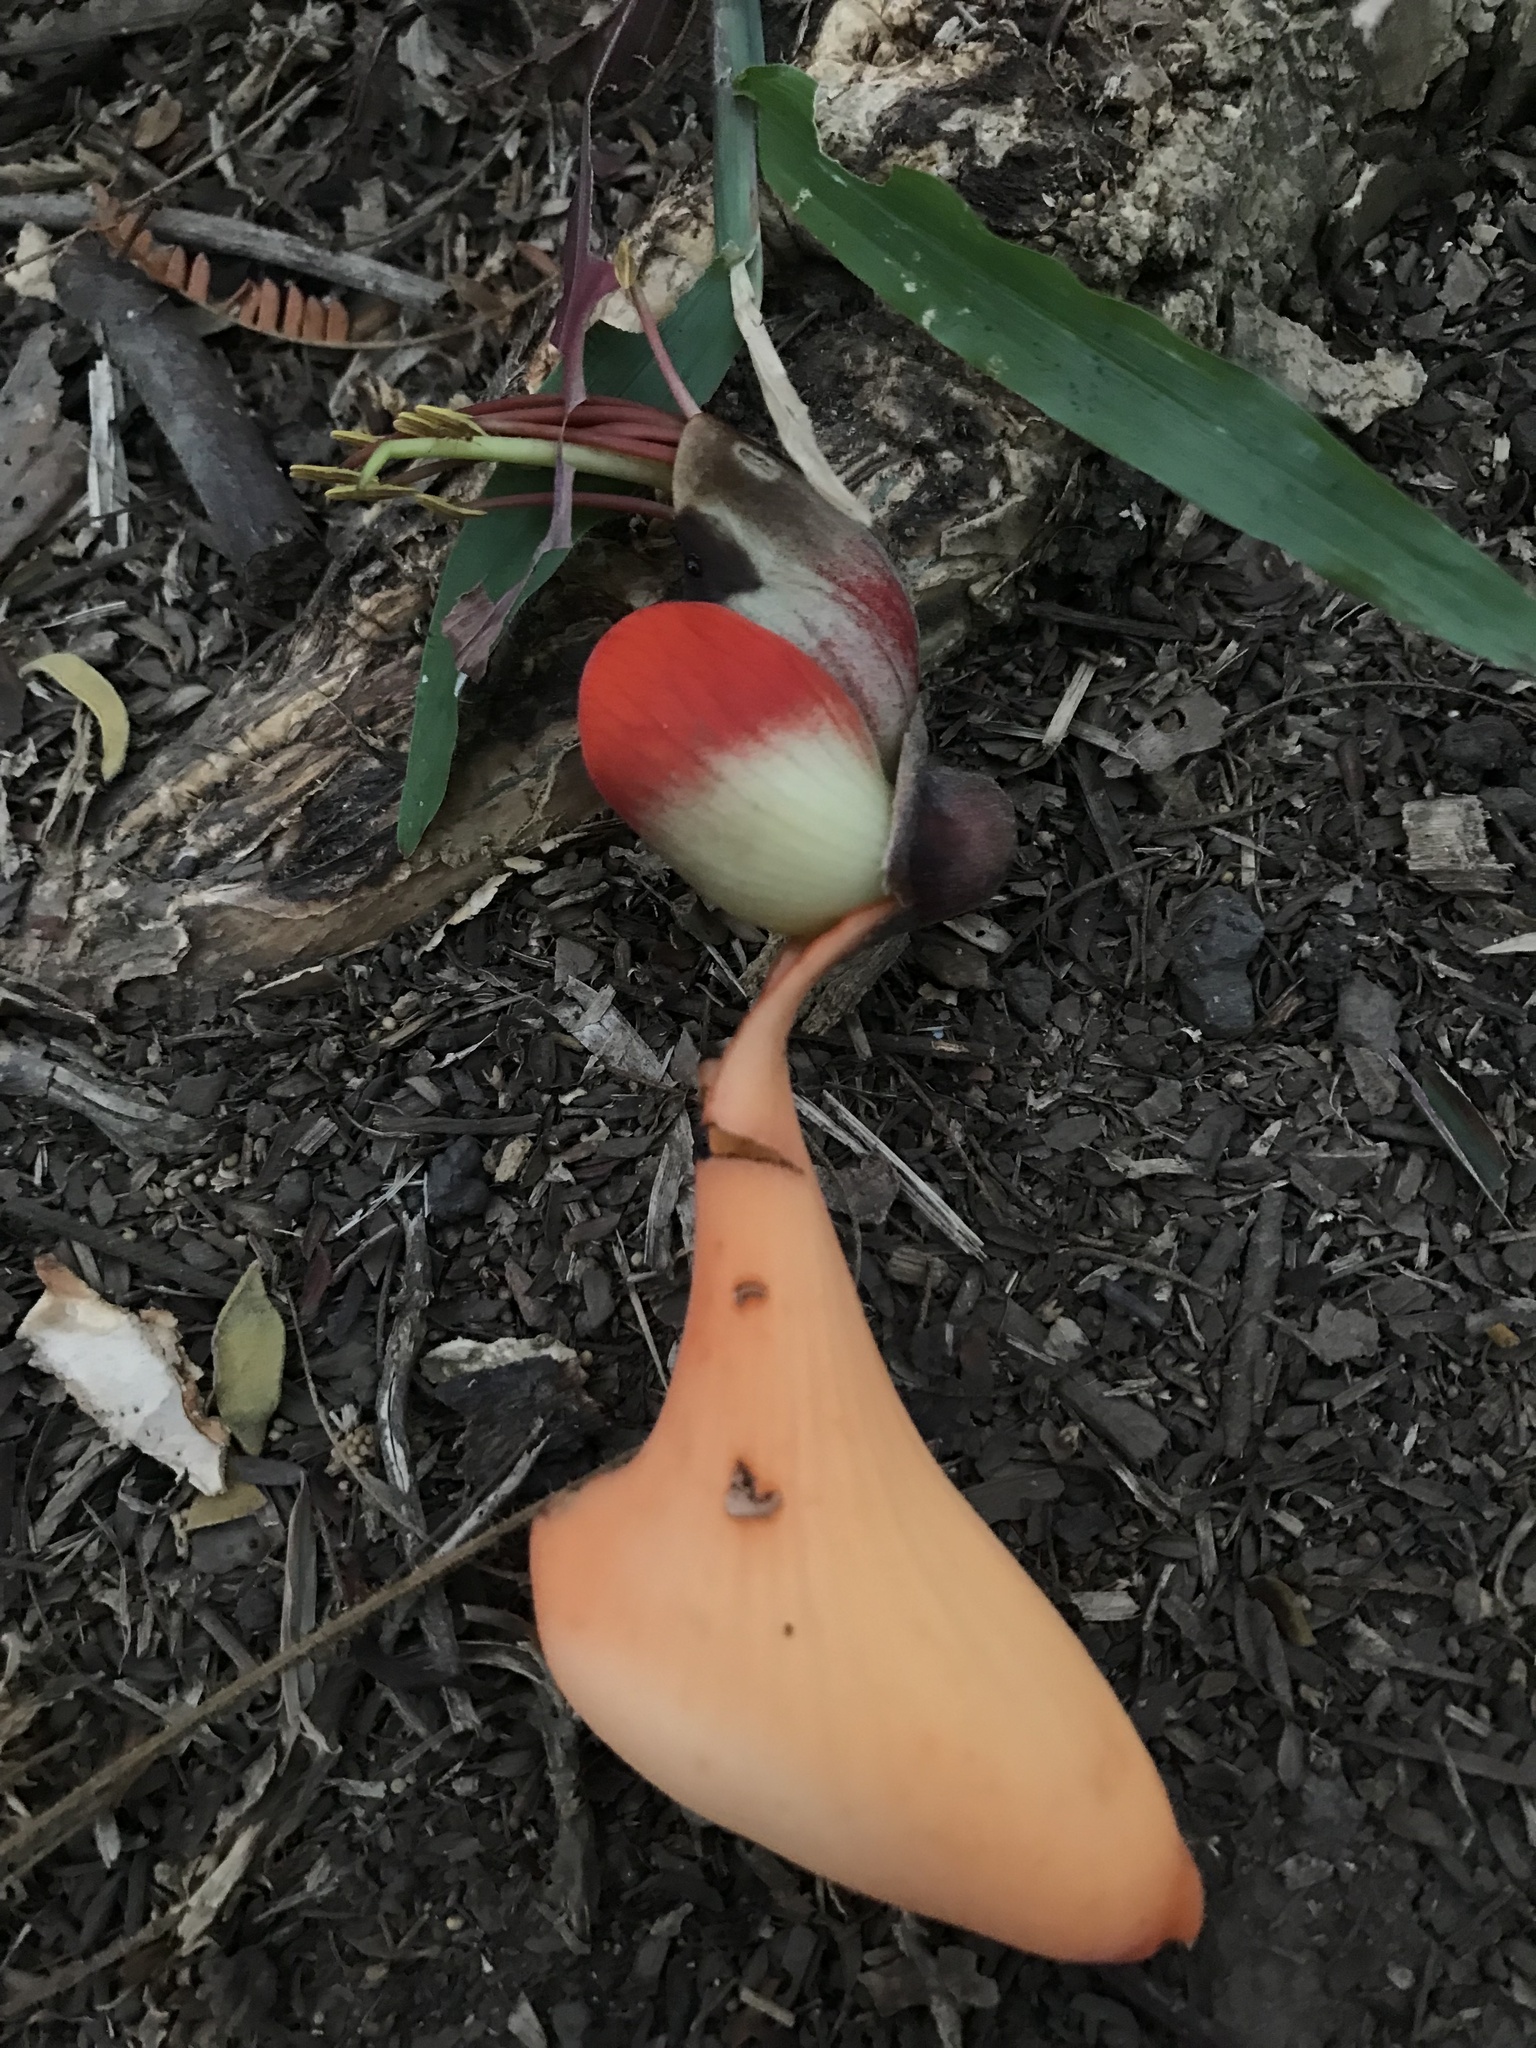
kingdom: Plantae
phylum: Tracheophyta
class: Magnoliopsida
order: Fabales
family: Fabaceae
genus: Erythrina
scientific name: Erythrina fusca
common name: Coral-bean
